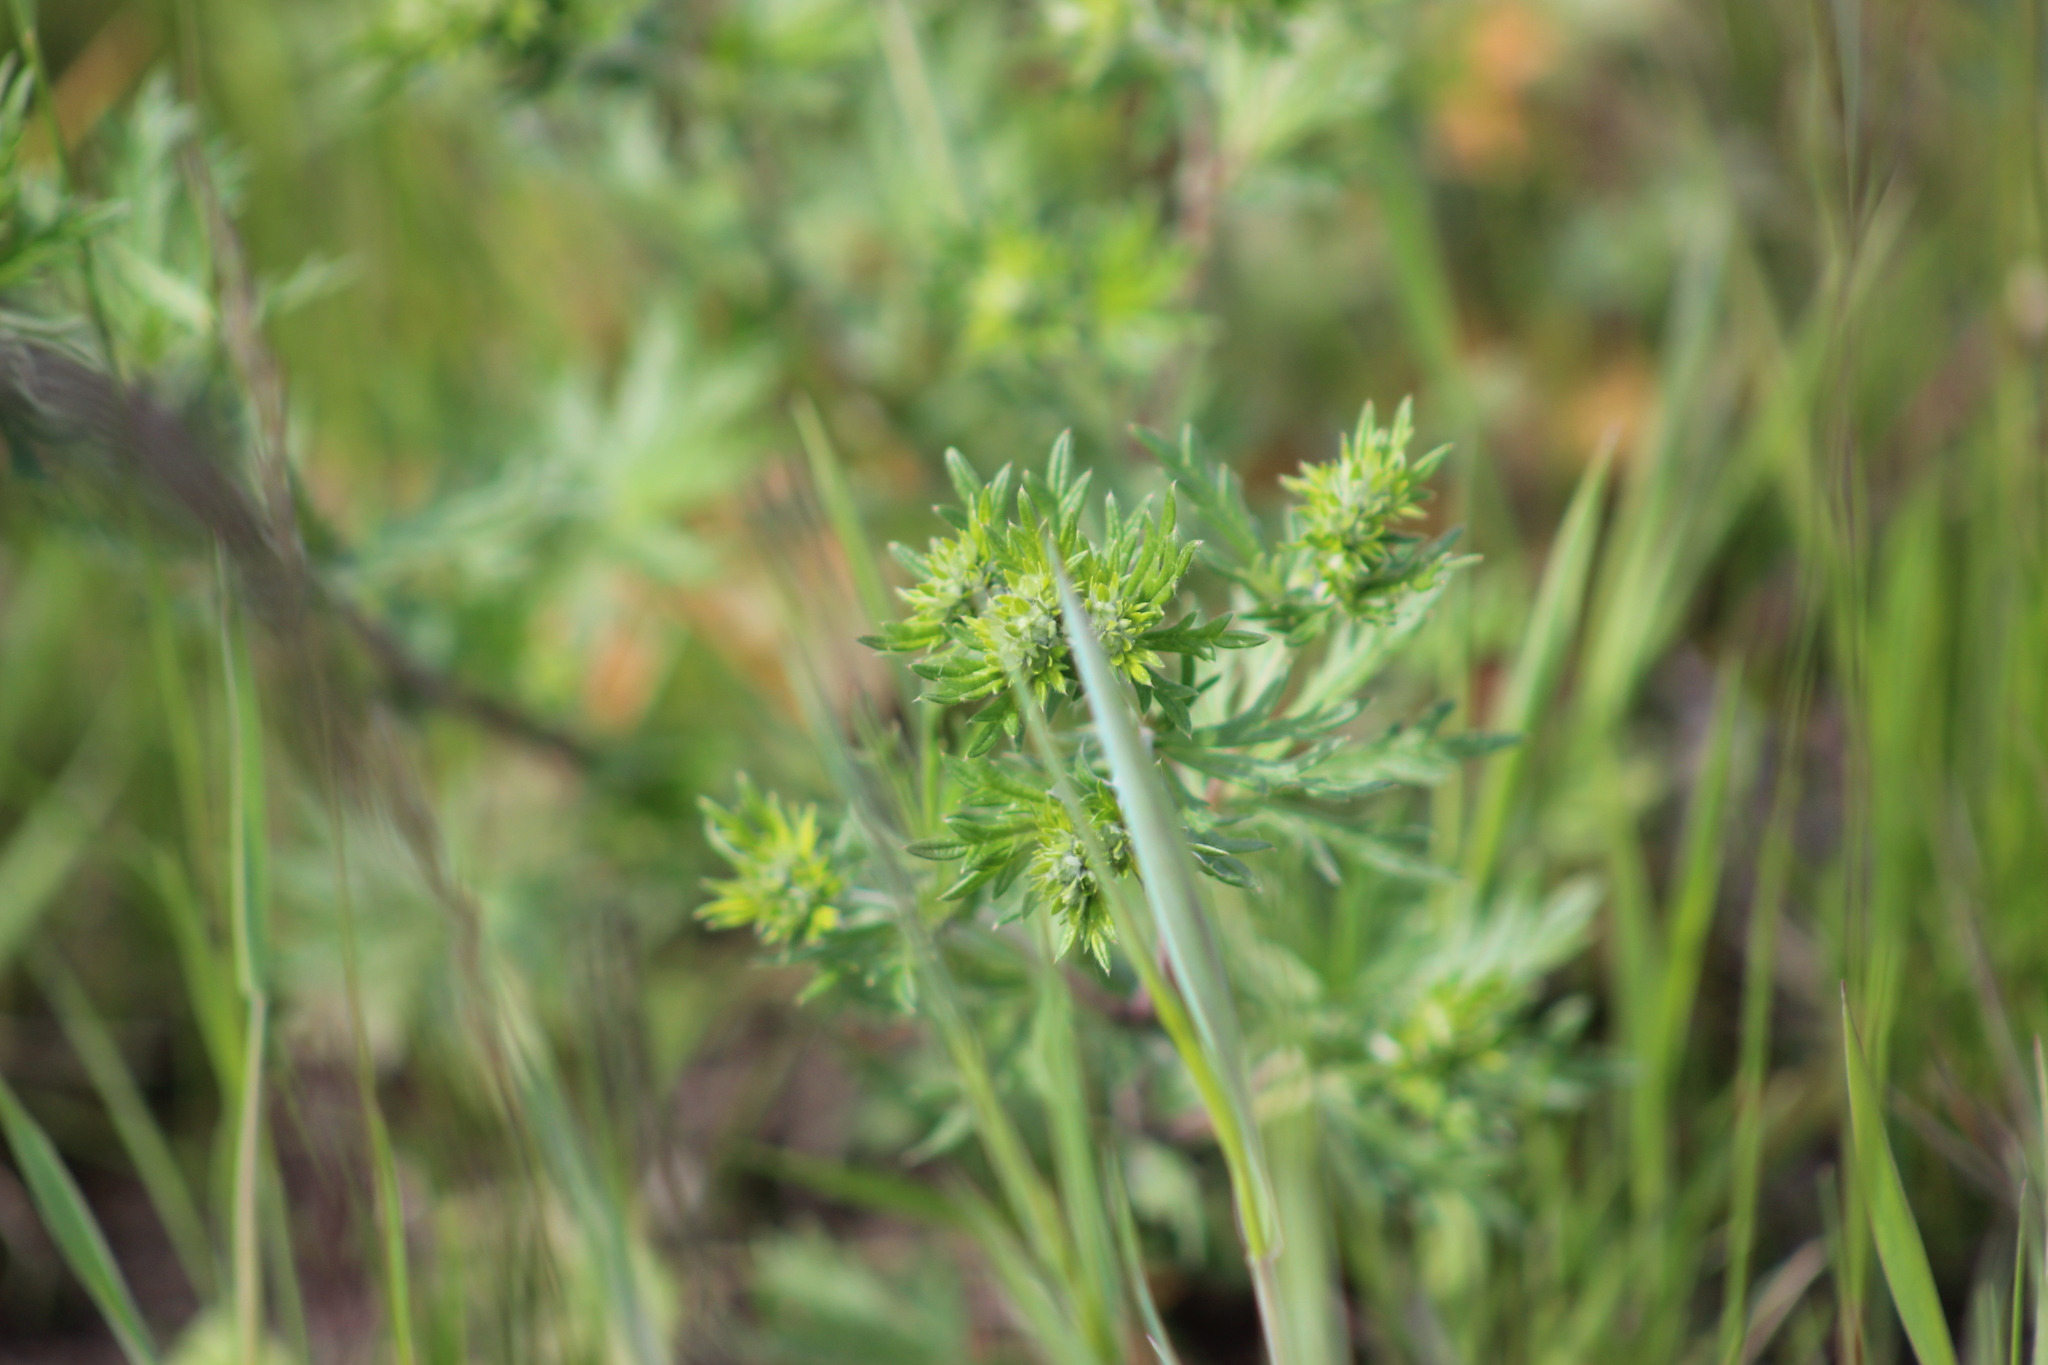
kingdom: Plantae
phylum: Tracheophyta
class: Magnoliopsida
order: Rosales
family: Rosaceae
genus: Potentilla
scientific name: Potentilla argentea
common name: Hoary cinquefoil
